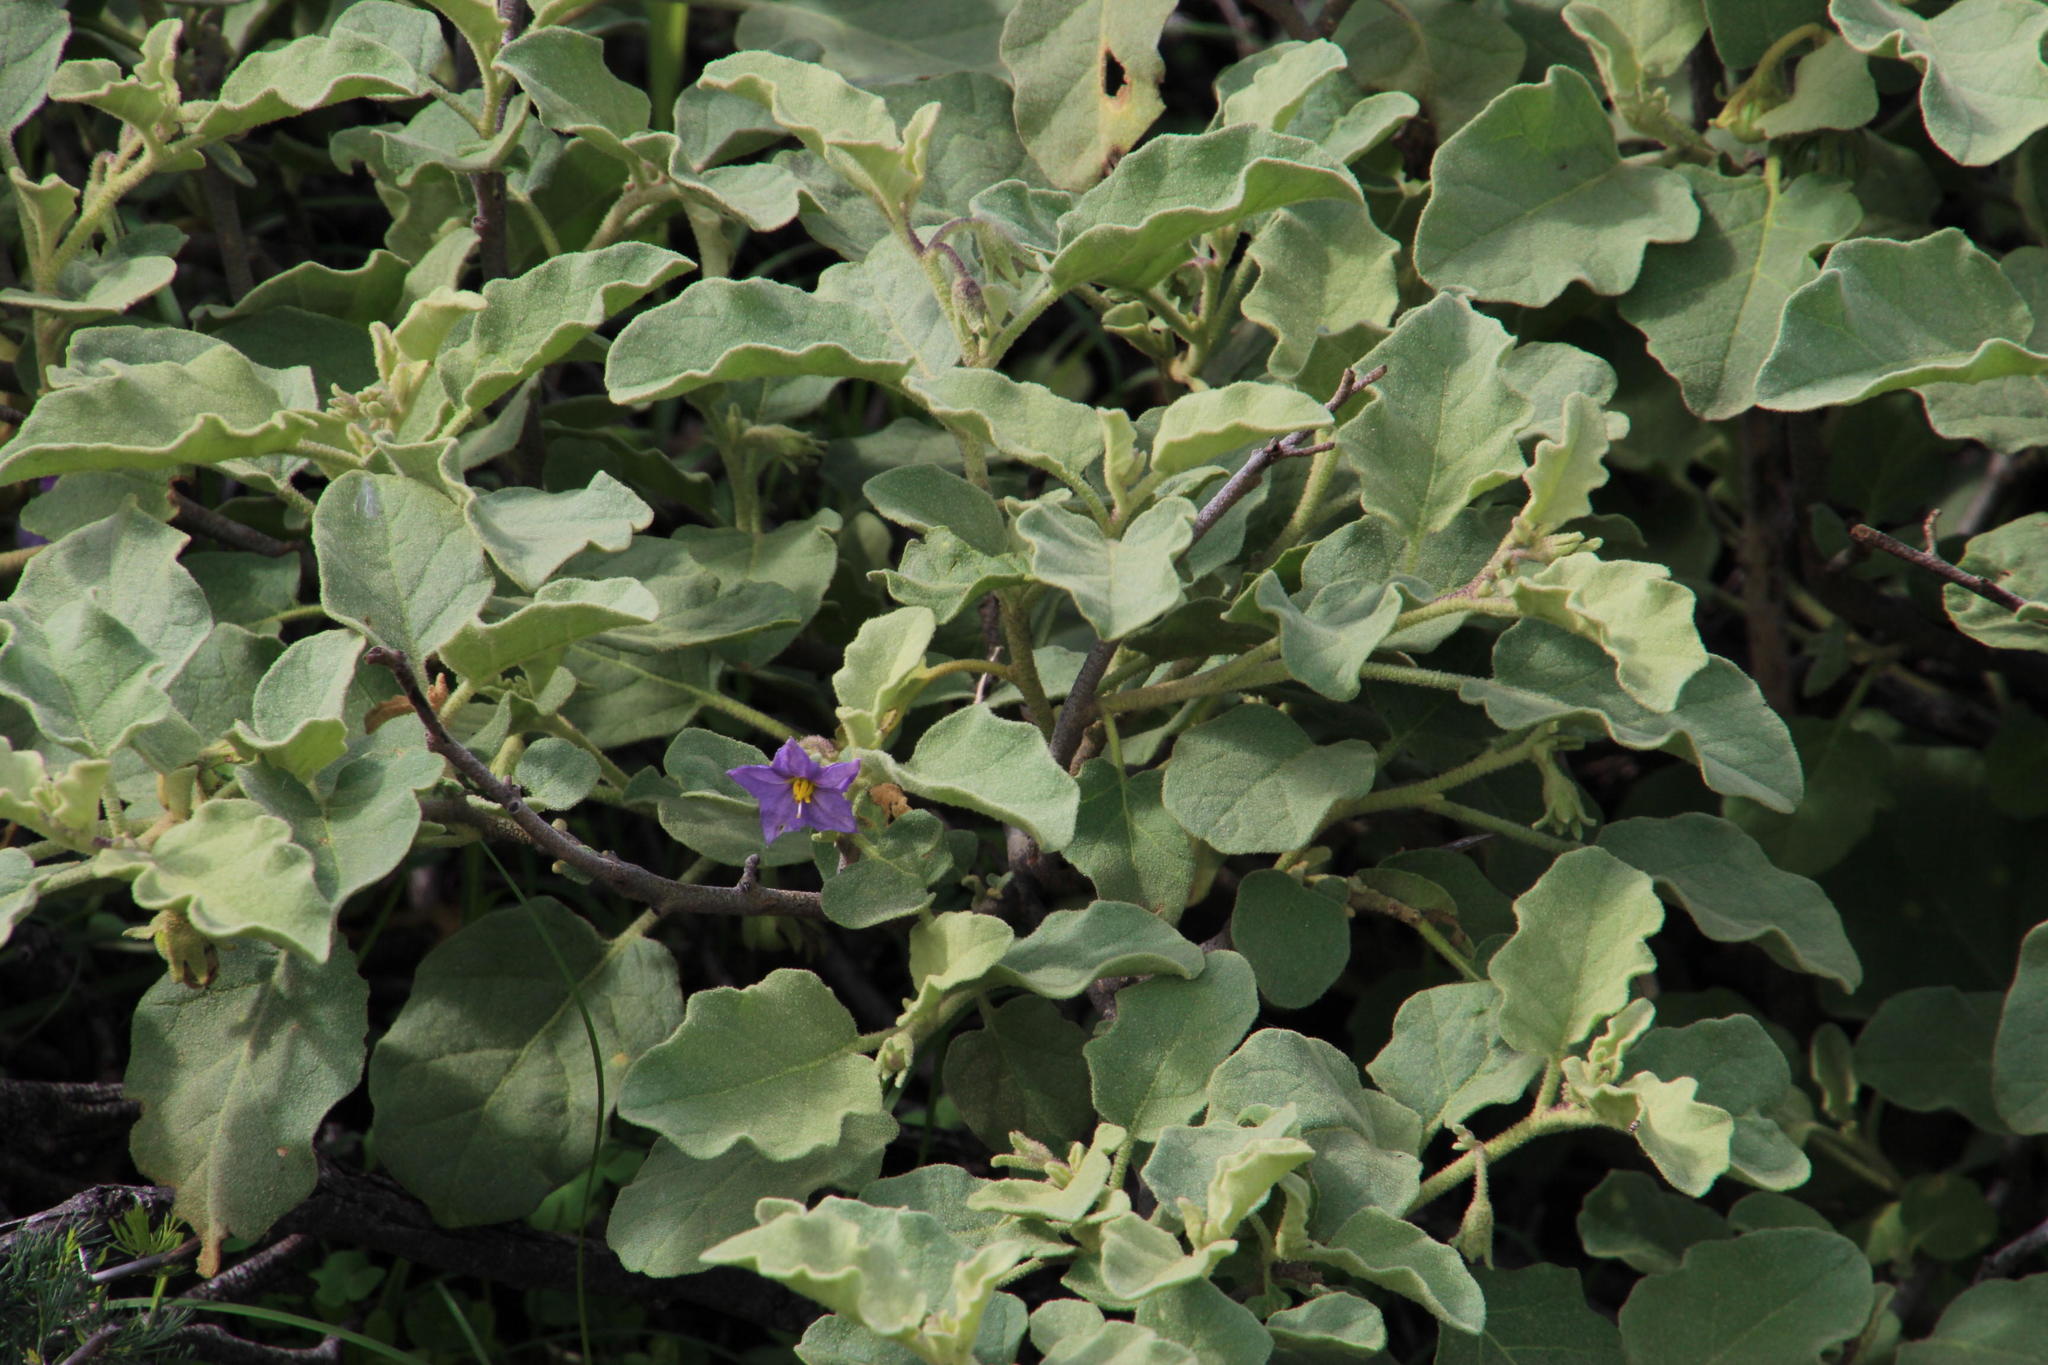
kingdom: Plantae
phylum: Tracheophyta
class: Magnoliopsida
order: Solanales
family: Solanaceae
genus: Solanum
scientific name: Solanum tomentosum
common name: Wild aubergine
